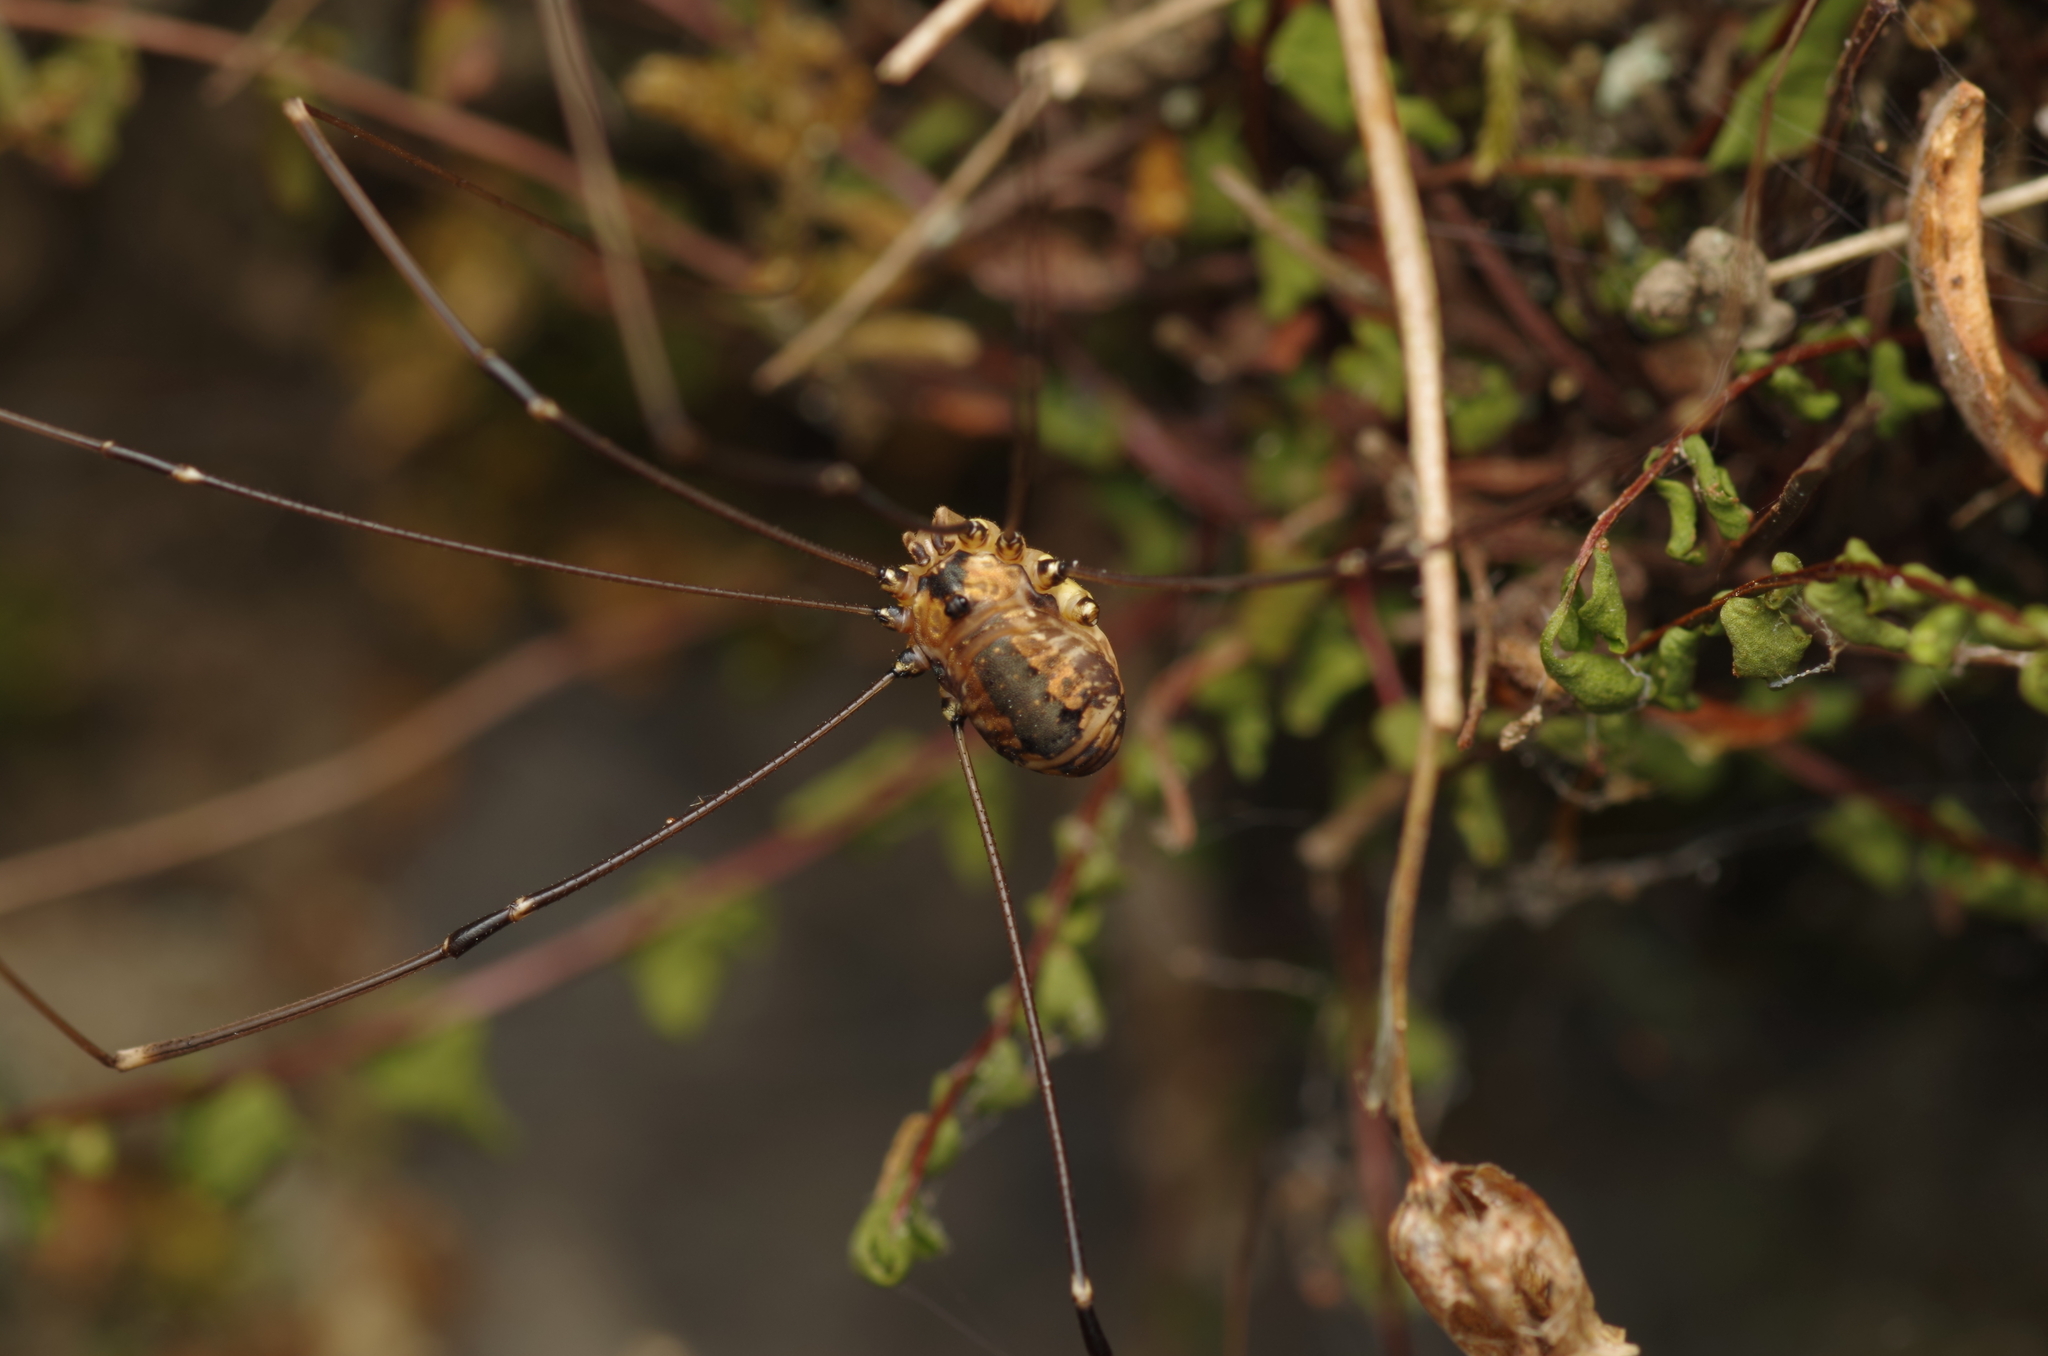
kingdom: Animalia
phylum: Arthropoda
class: Arachnida
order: Opiliones
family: Sclerosomatidae
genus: Leiobunum
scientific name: Leiobunum rotundum
